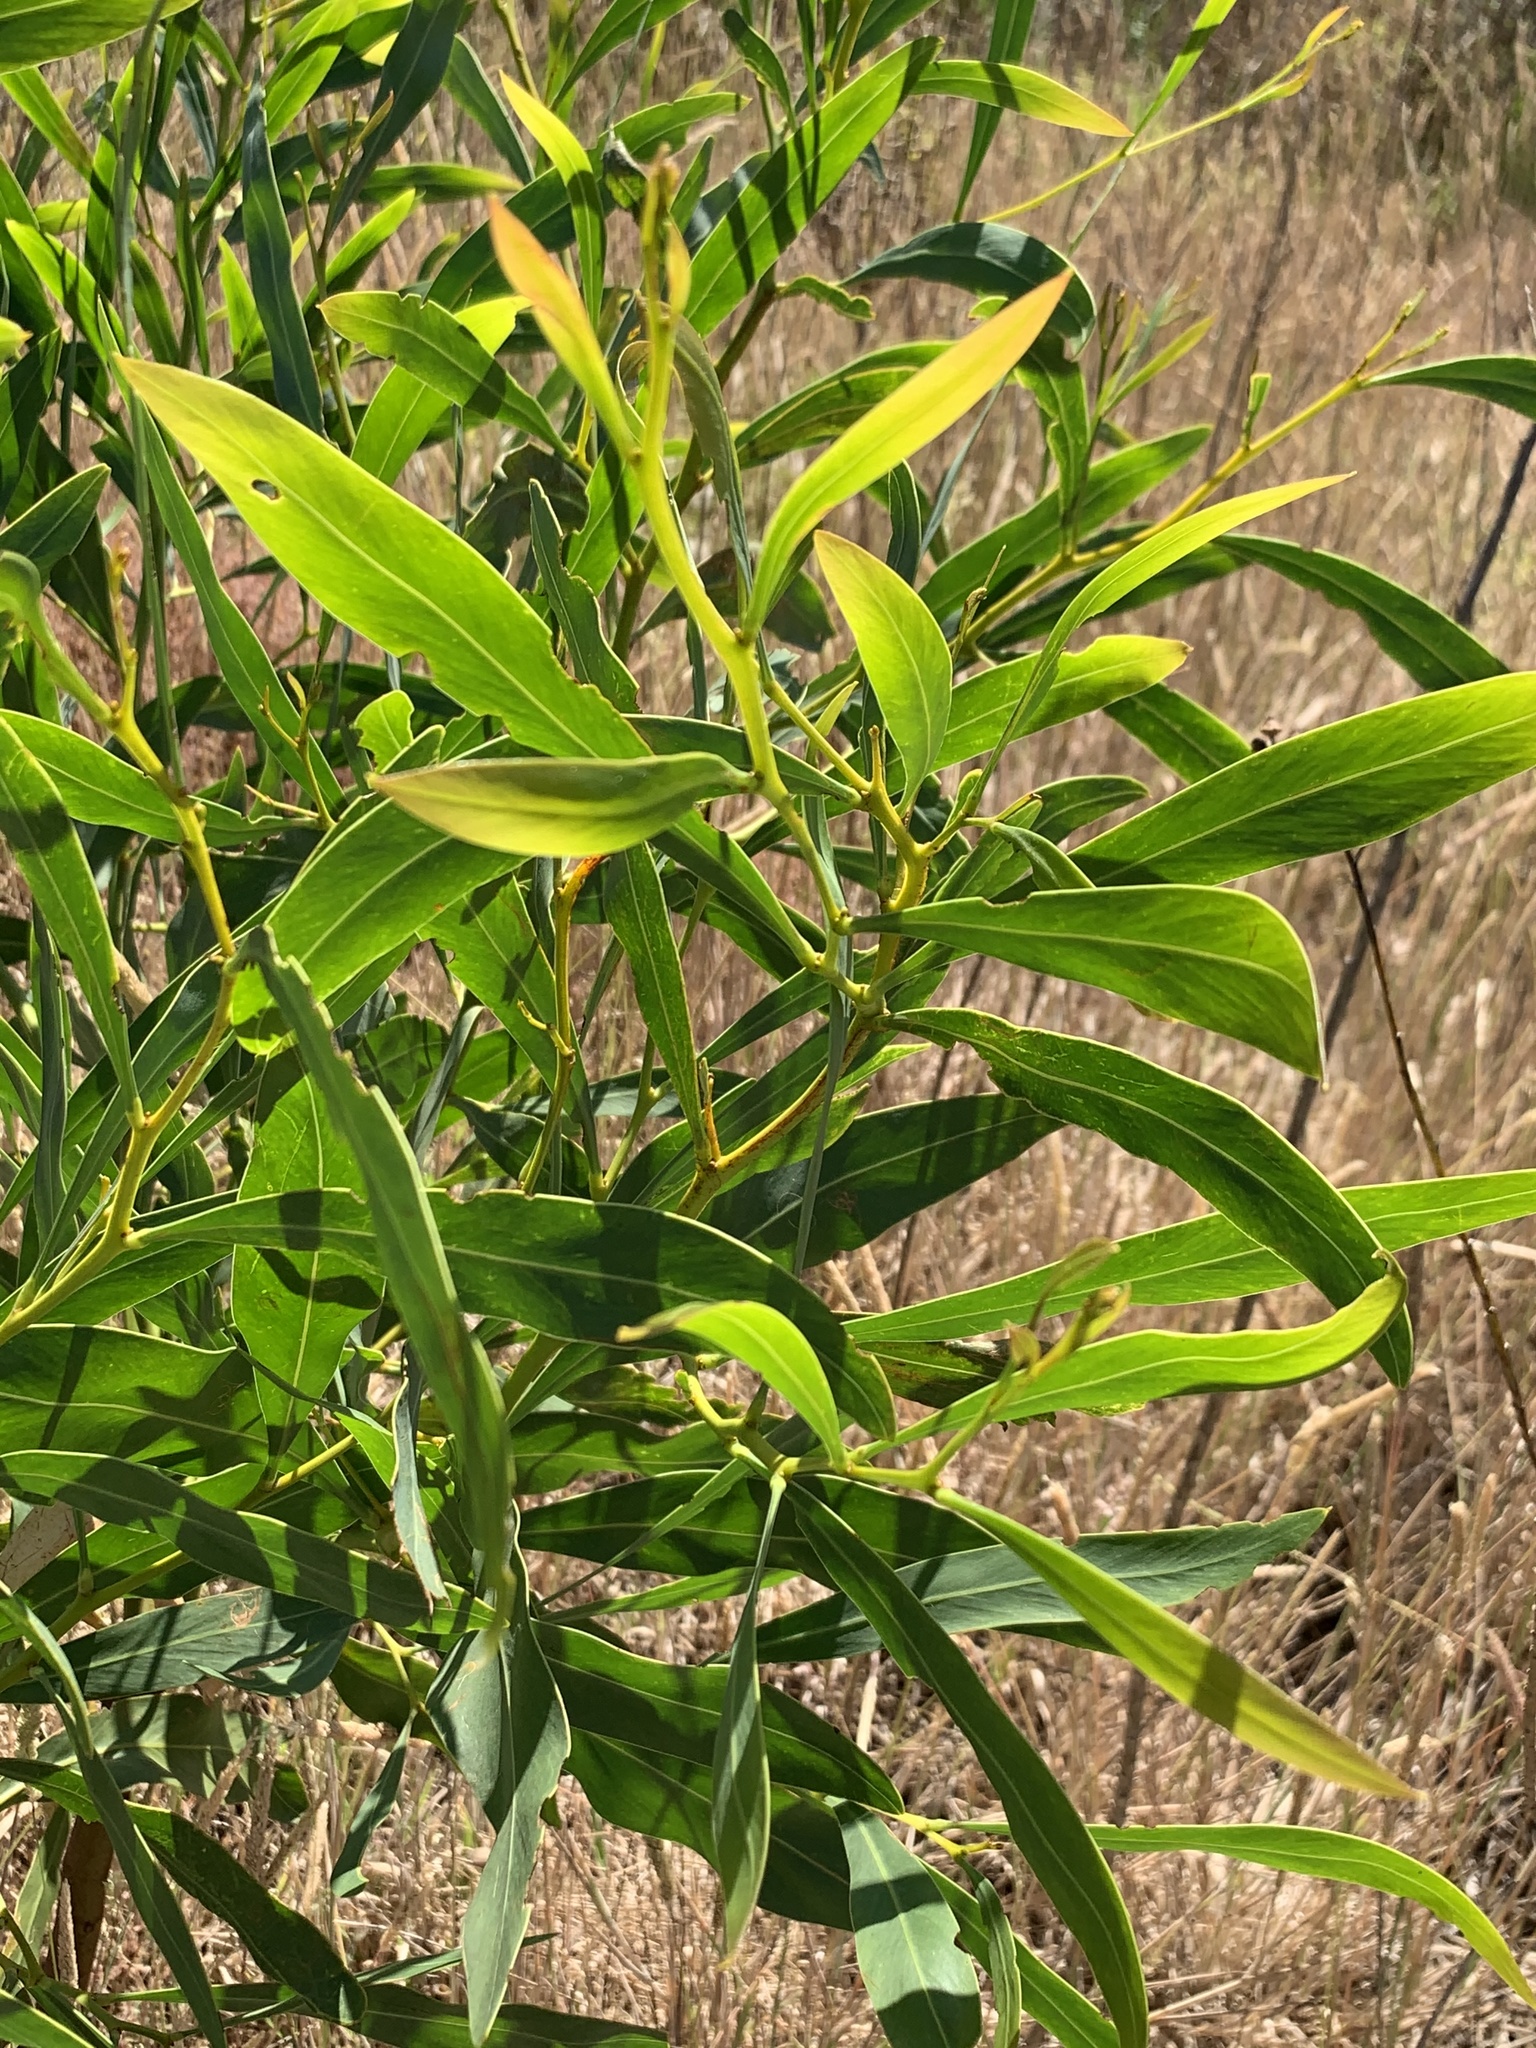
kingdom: Plantae
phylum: Tracheophyta
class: Magnoliopsida
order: Fabales
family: Fabaceae
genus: Acacia
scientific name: Acacia saligna
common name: Orange wattle
